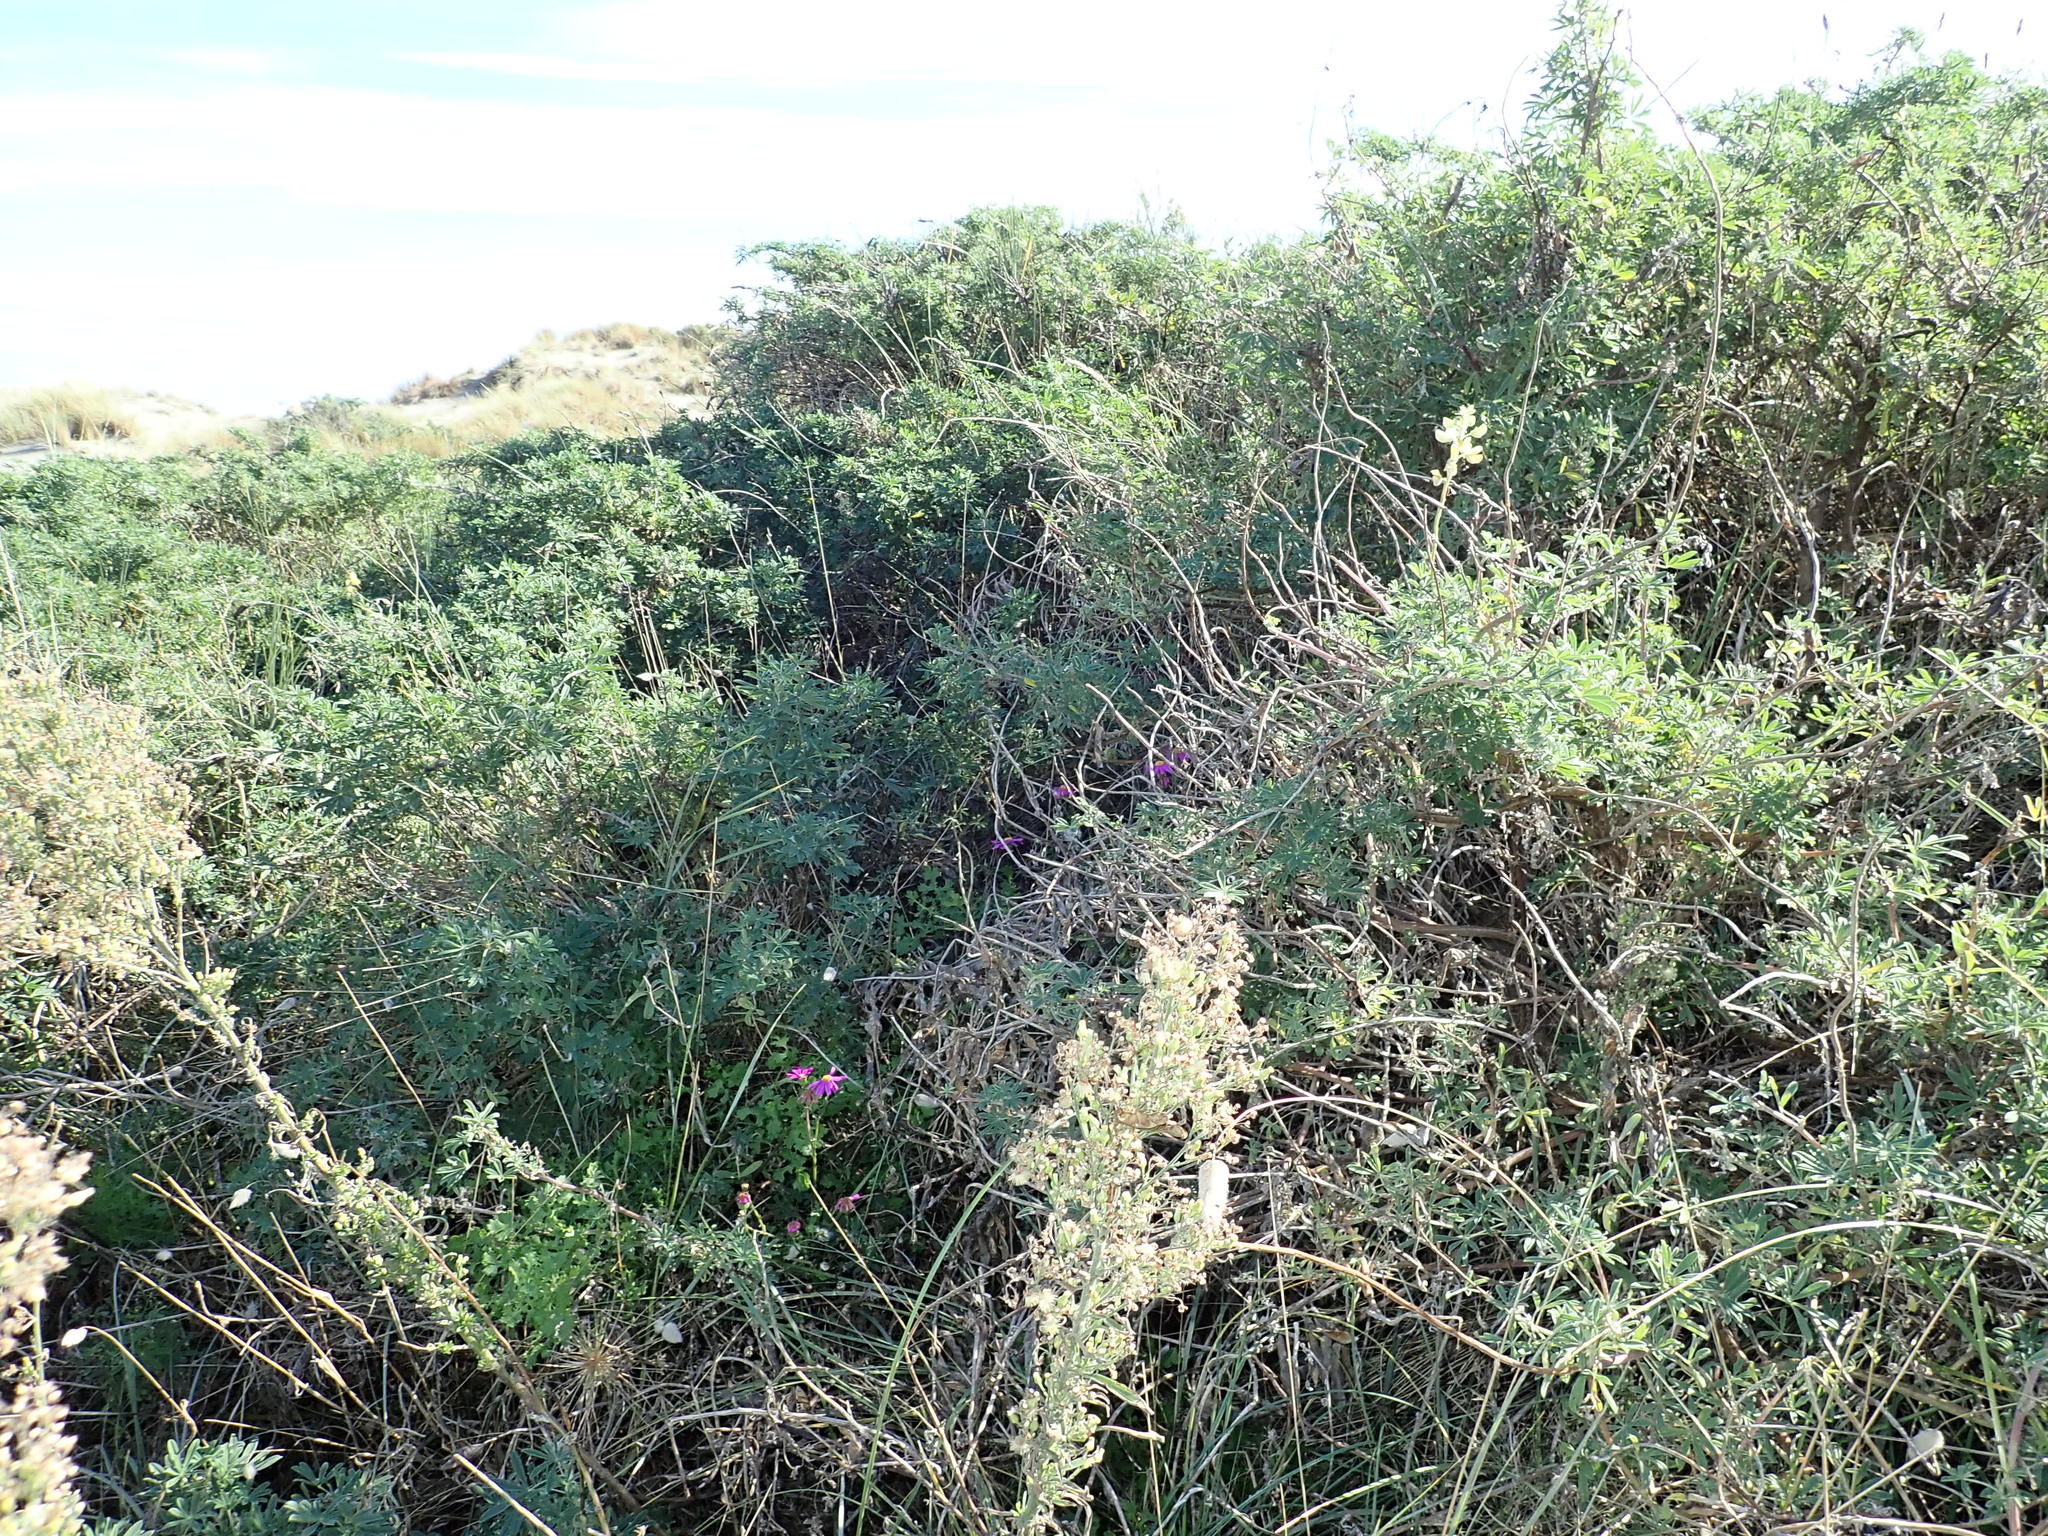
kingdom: Plantae
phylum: Tracheophyta
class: Magnoliopsida
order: Asterales
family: Asteraceae
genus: Senecio
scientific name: Senecio elegans
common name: Purple groundsel
